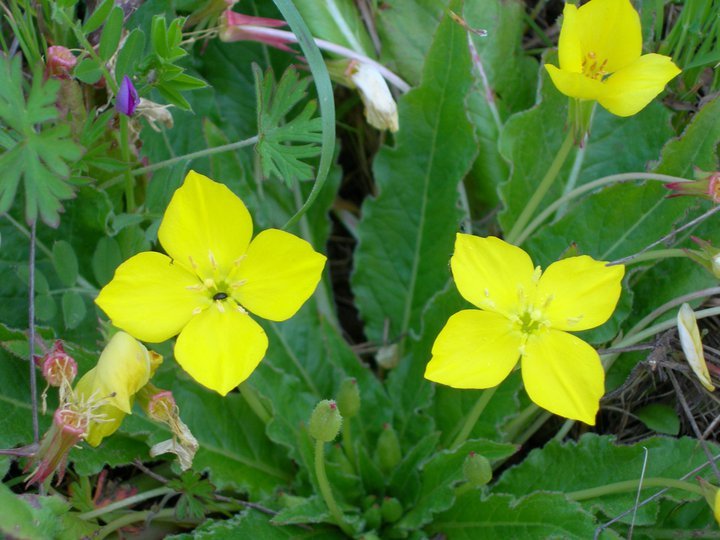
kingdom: Plantae
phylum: Tracheophyta
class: Magnoliopsida
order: Myrtales
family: Onagraceae
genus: Taraxia
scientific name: Taraxia ovata
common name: Goldeneggs
